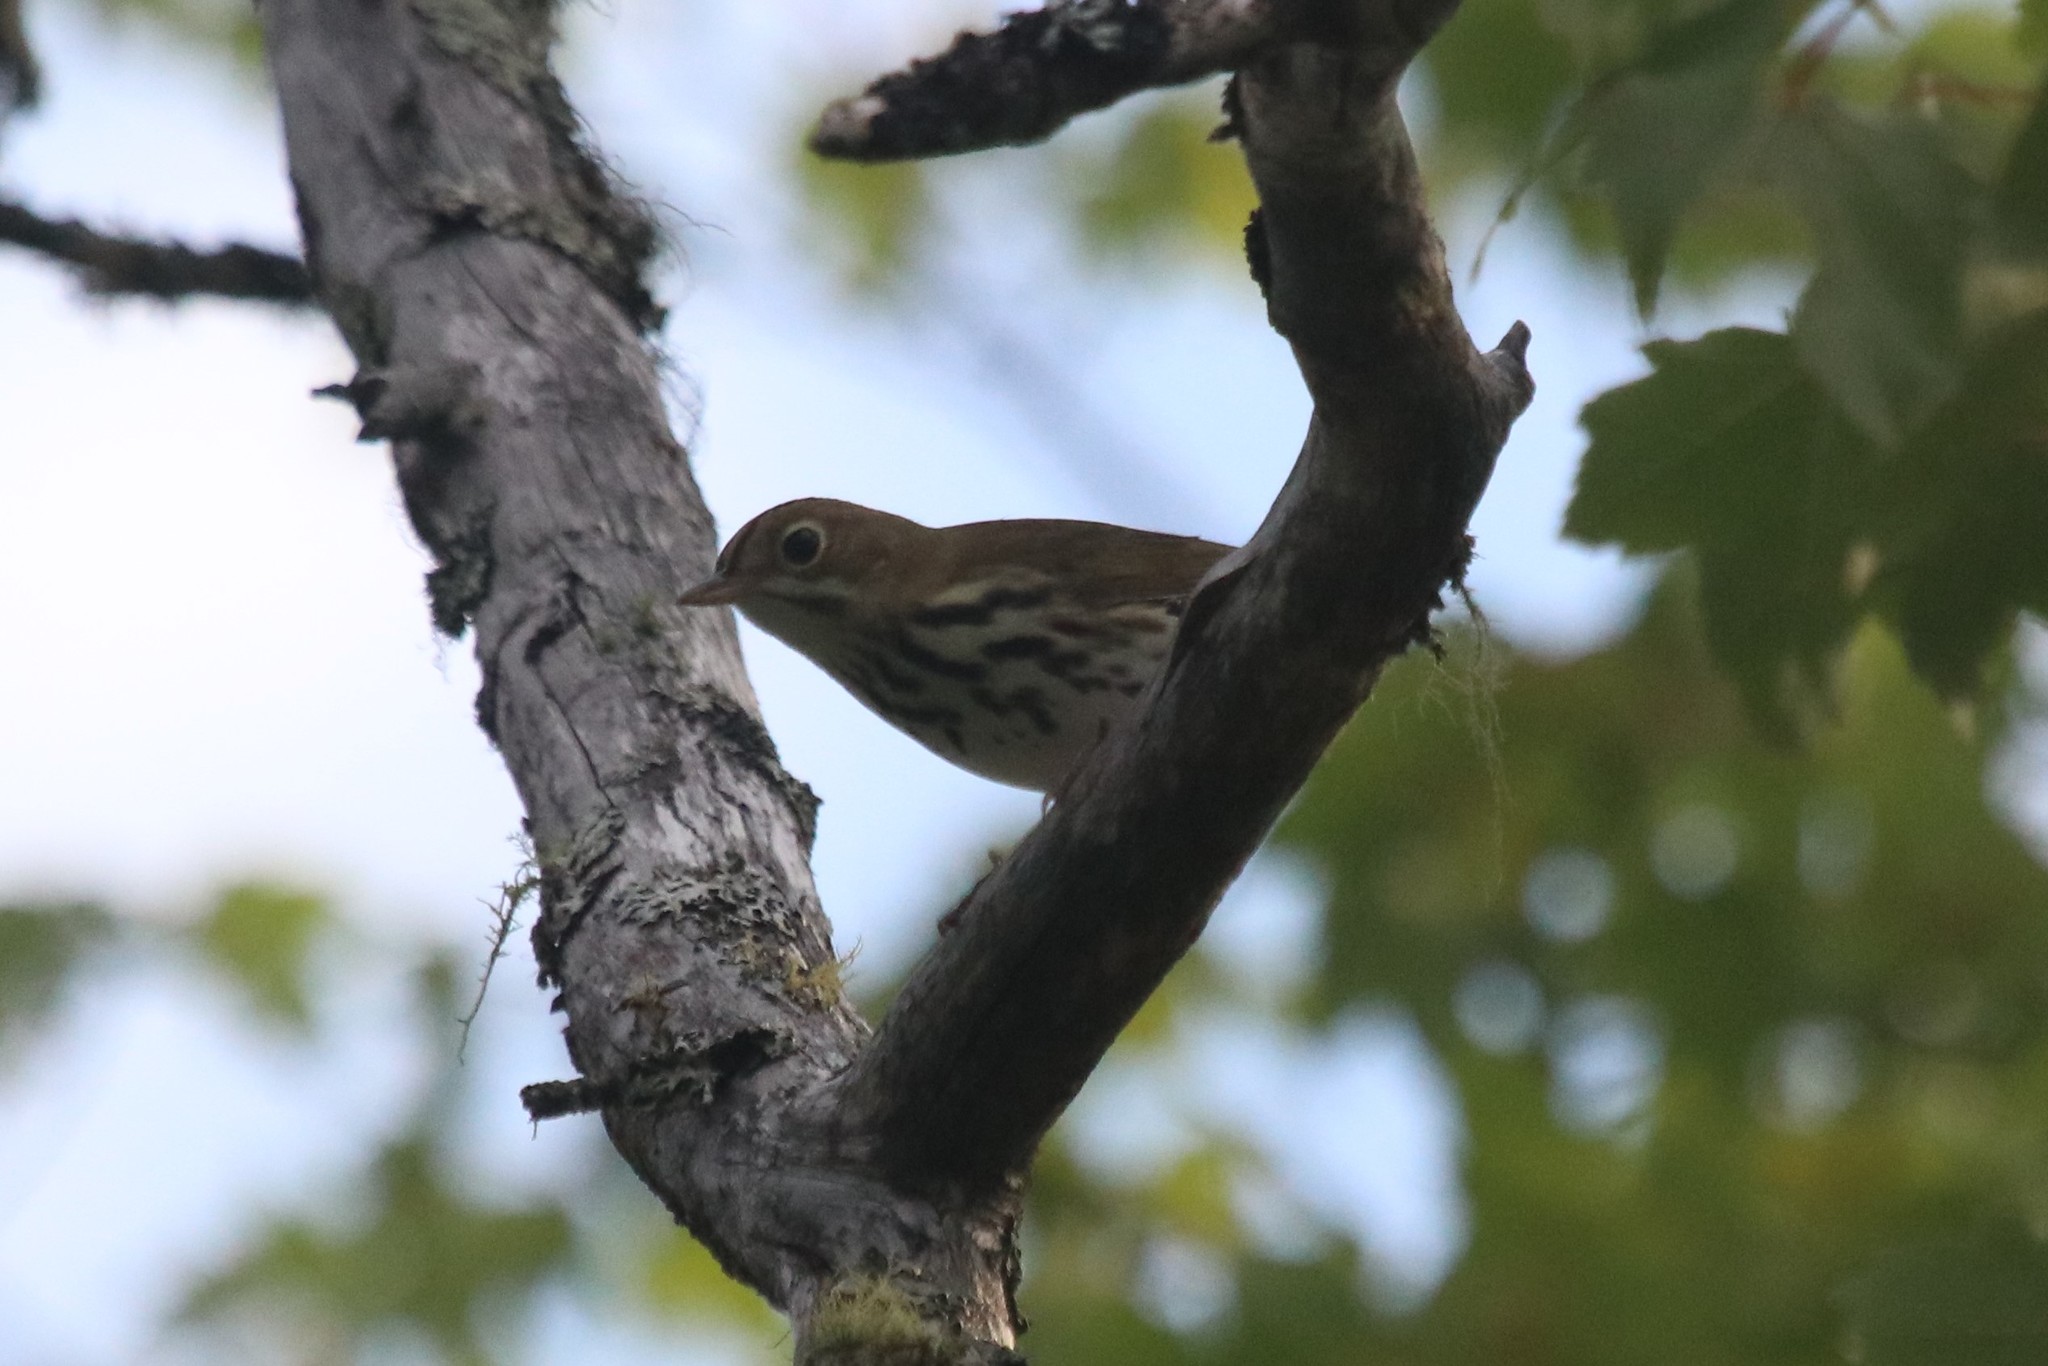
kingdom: Animalia
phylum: Chordata
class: Aves
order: Passeriformes
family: Parulidae
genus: Seiurus
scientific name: Seiurus aurocapilla
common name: Ovenbird
